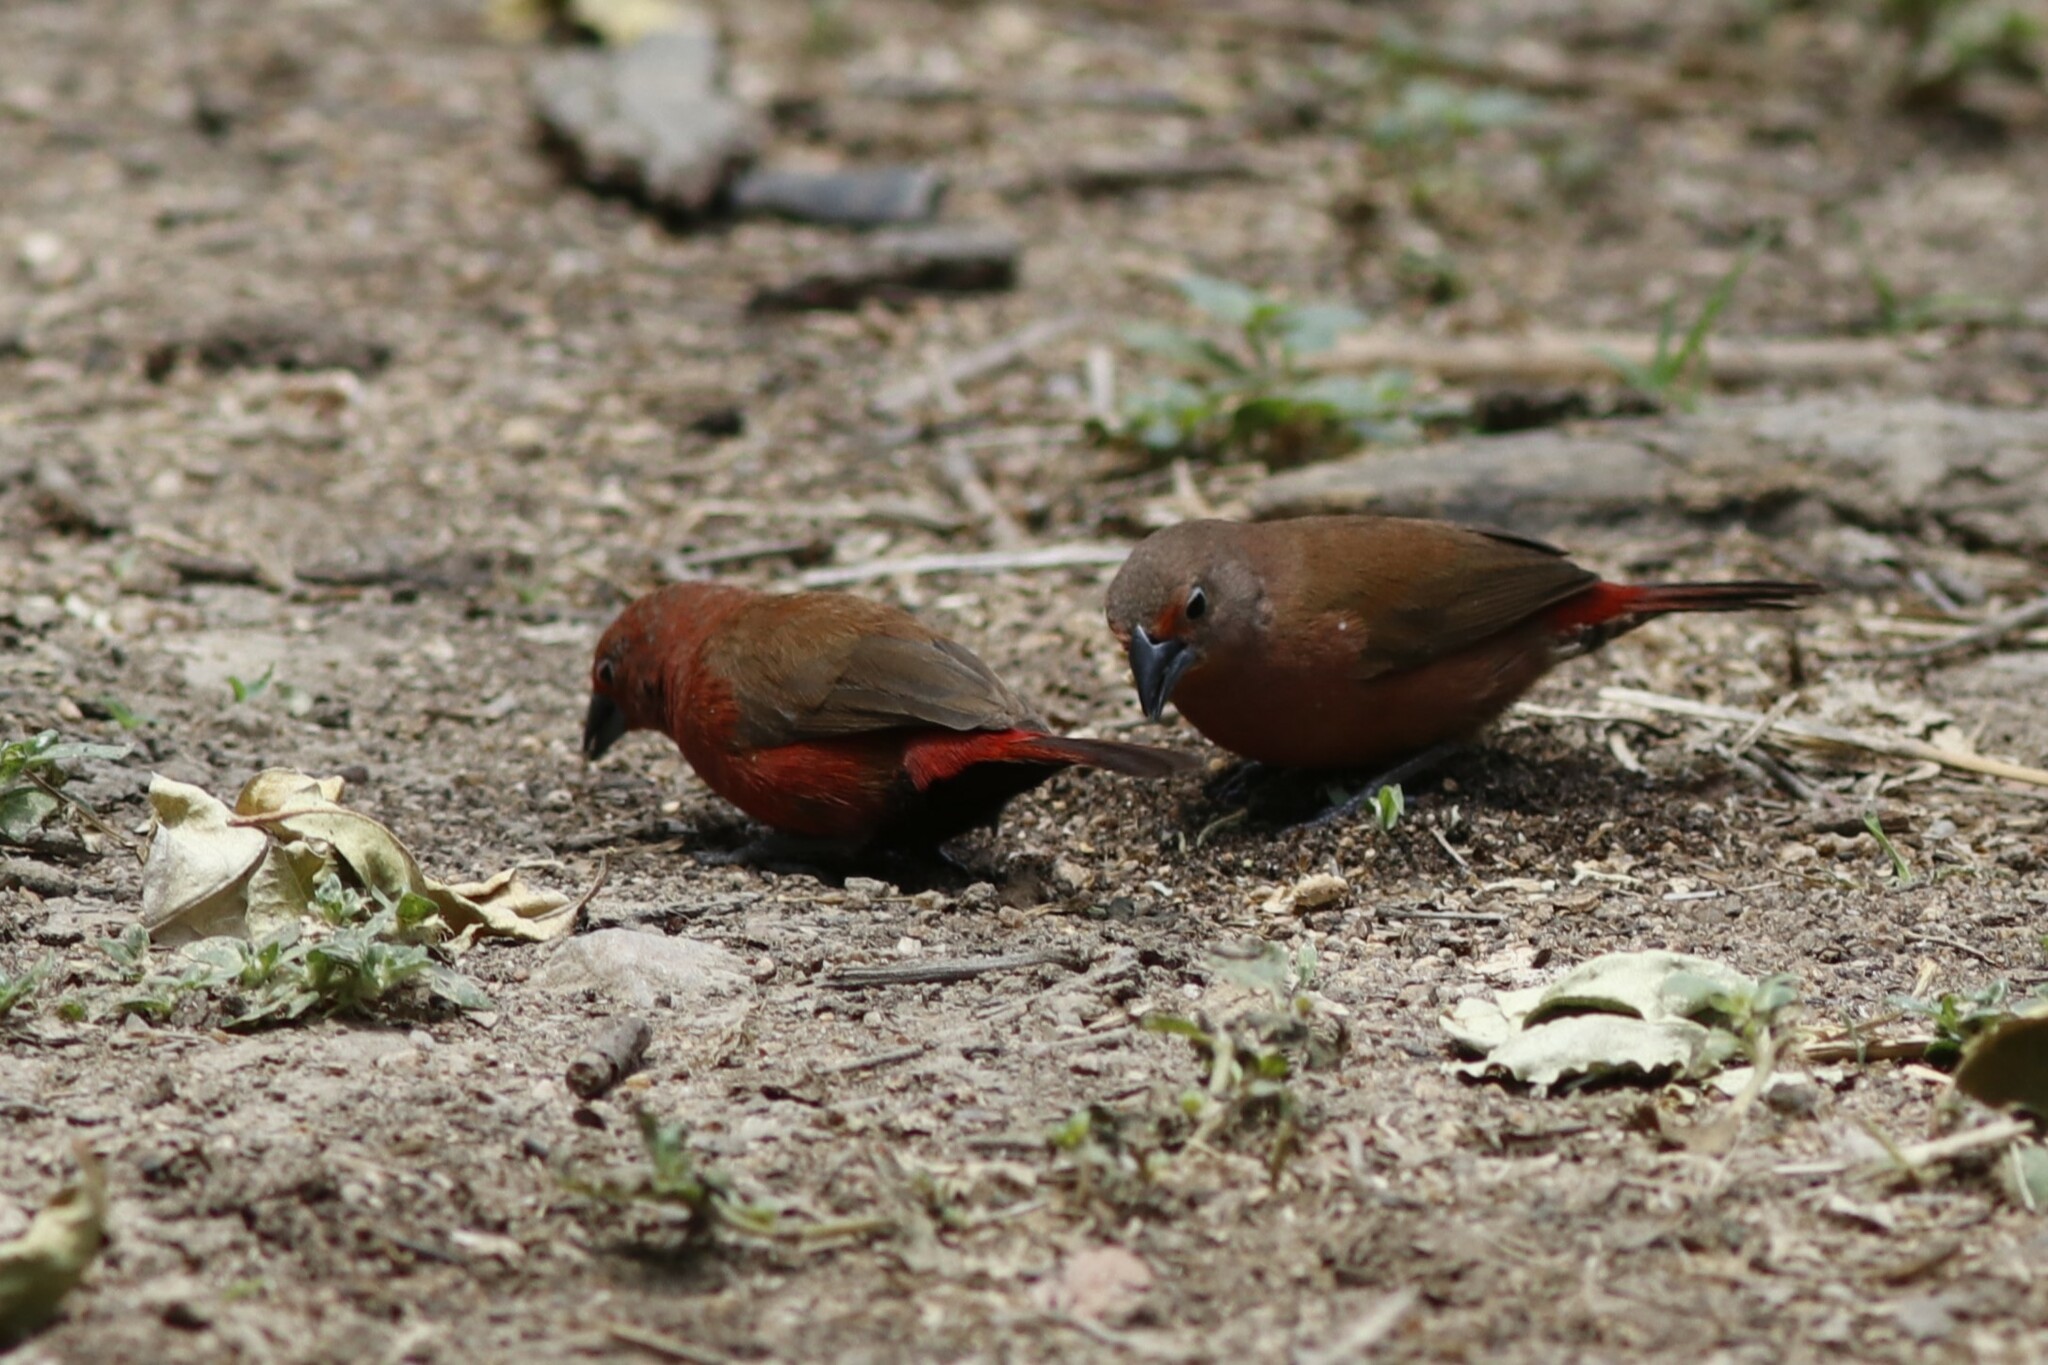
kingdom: Animalia
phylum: Chordata
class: Aves
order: Passeriformes
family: Estrildidae
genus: Lagonosticta
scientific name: Lagonosticta rhodopareia
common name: Jameson's firefinch
